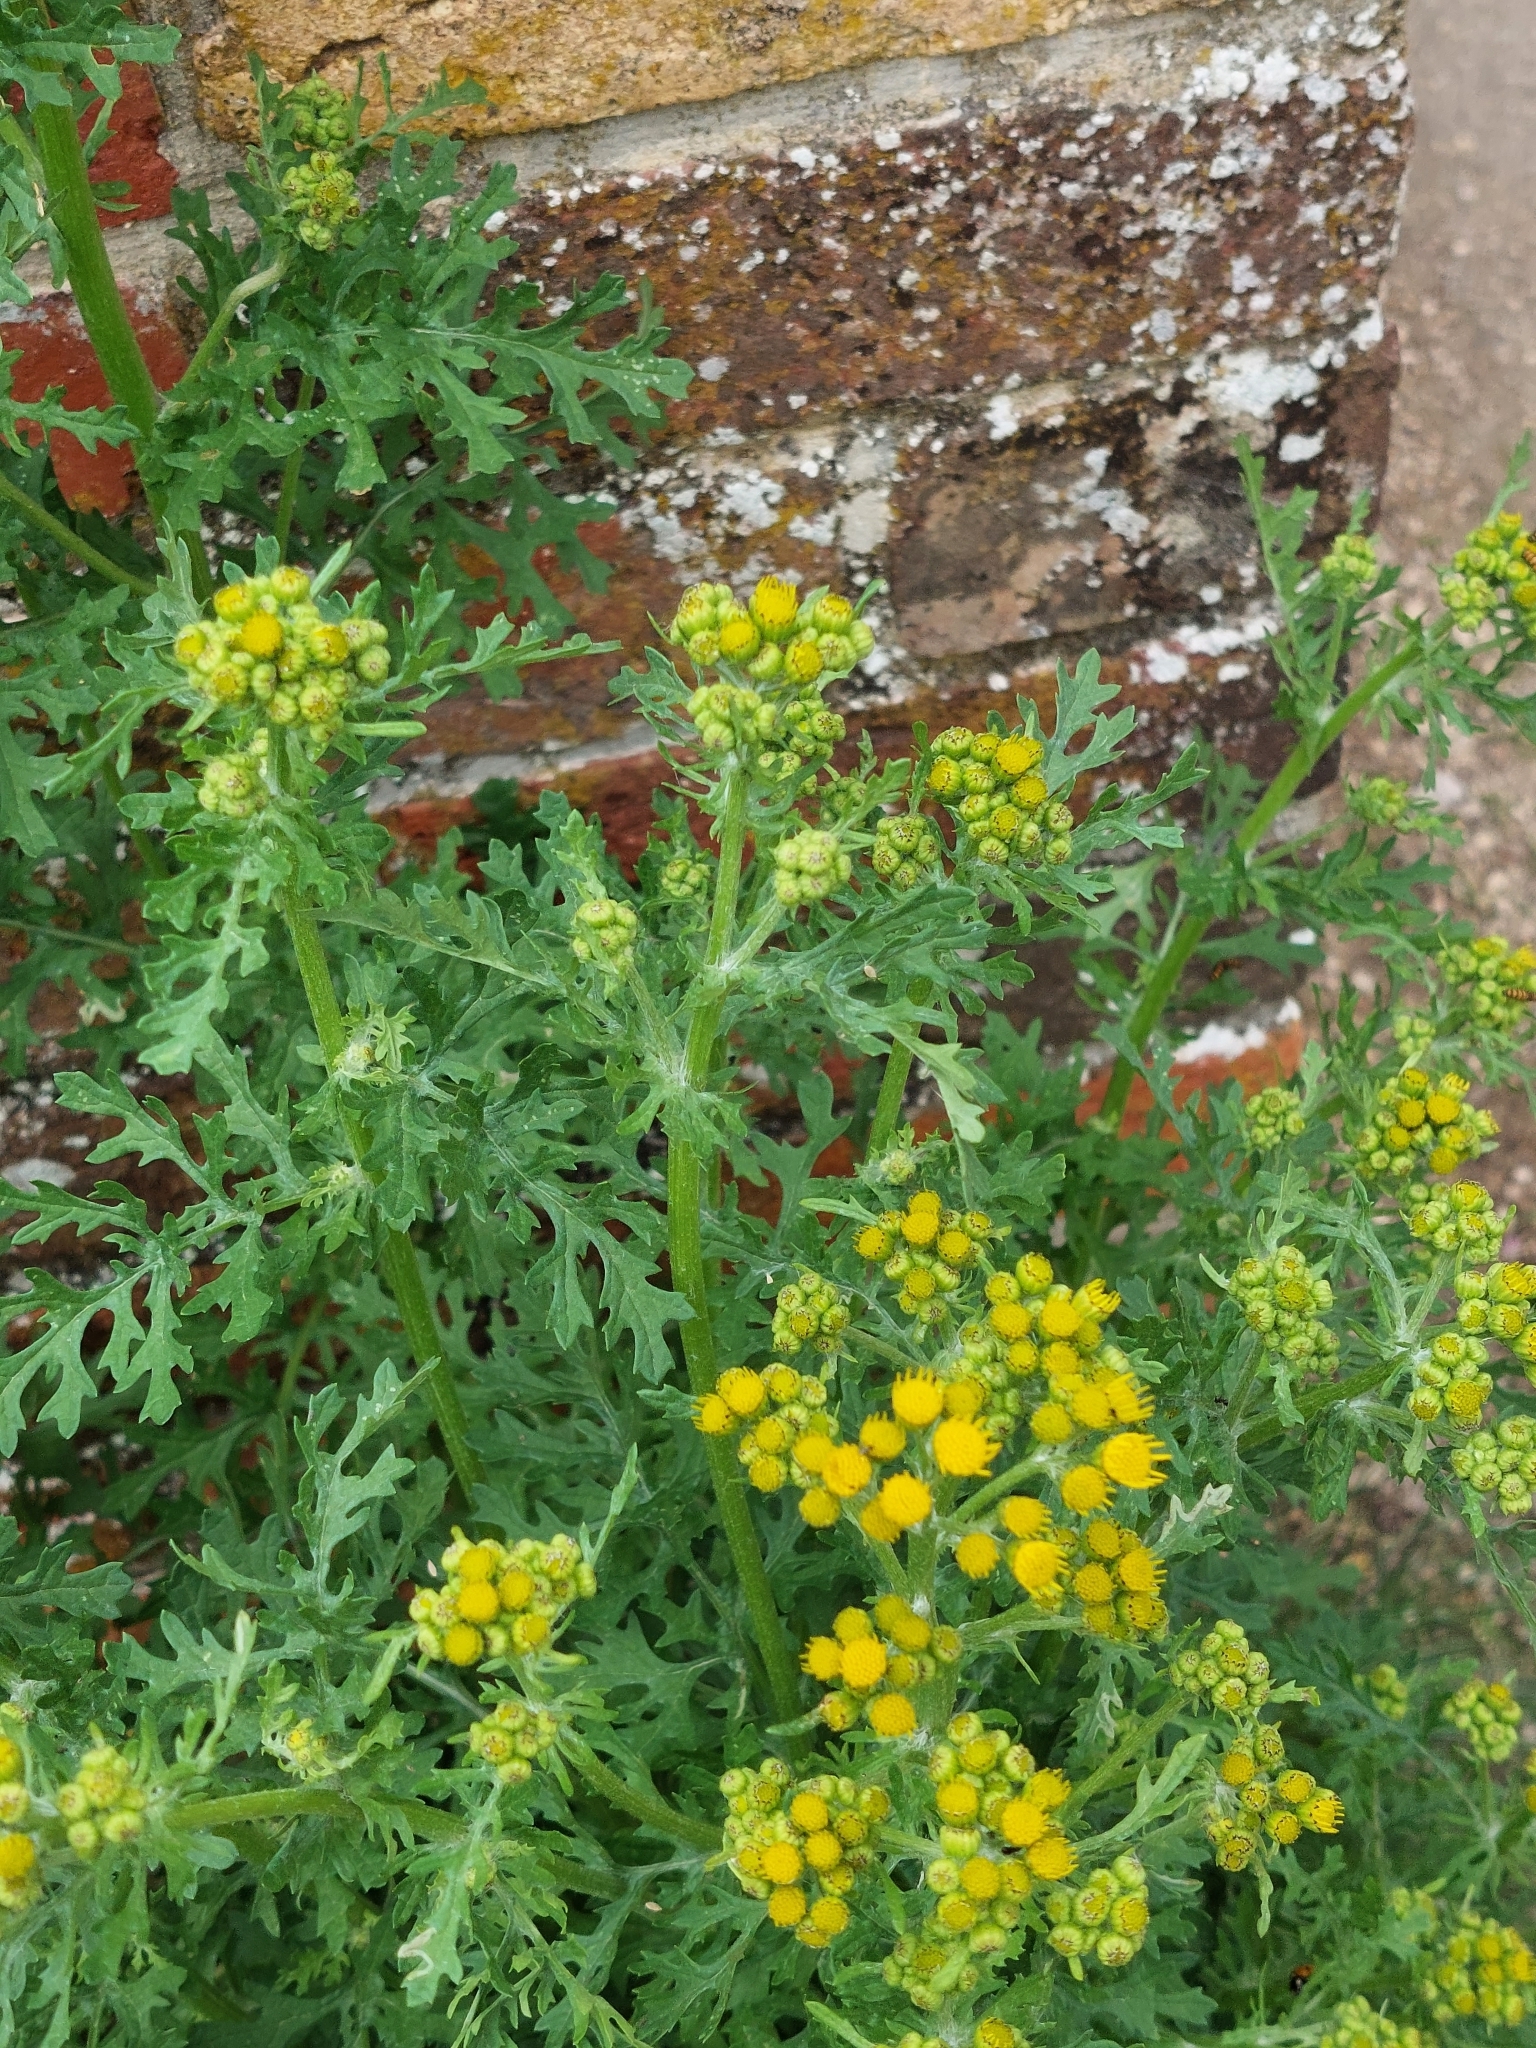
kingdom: Plantae
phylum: Tracheophyta
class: Magnoliopsida
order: Asterales
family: Asteraceae
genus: Jacobaea
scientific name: Jacobaea vulgaris
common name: Stinking willie
